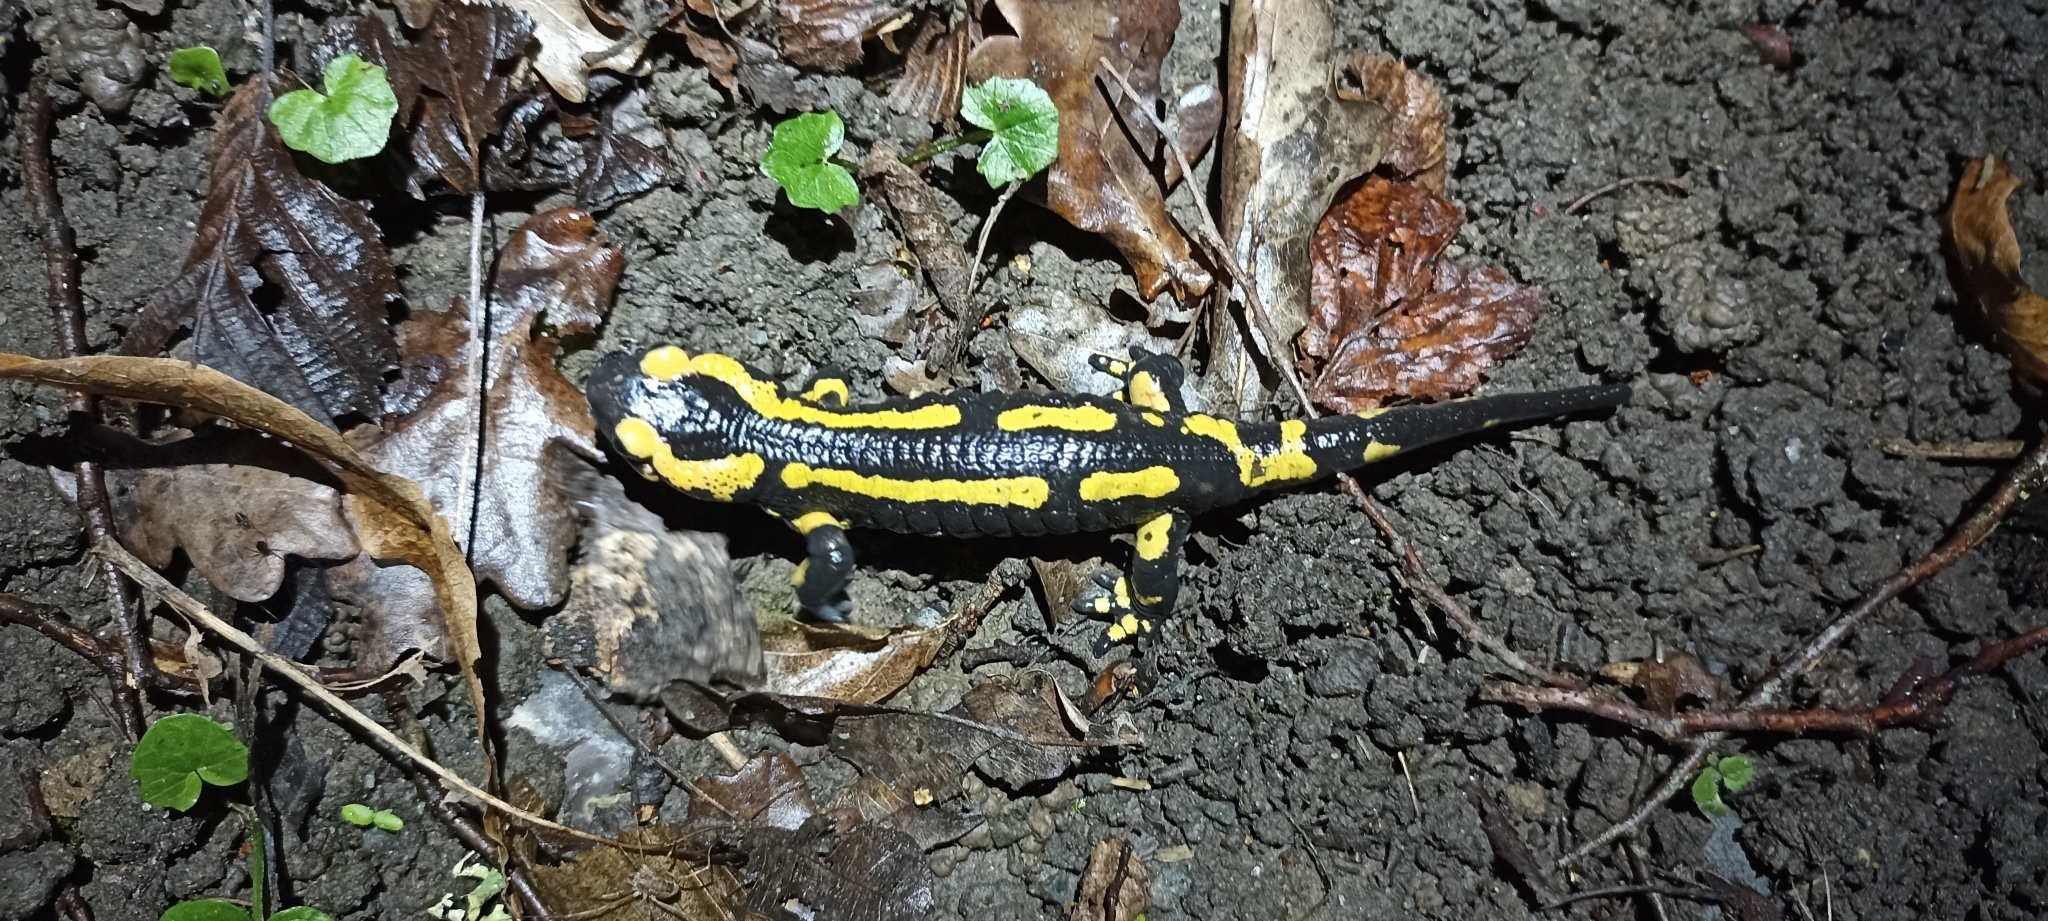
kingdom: Animalia
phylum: Chordata
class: Amphibia
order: Caudata
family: Salamandridae
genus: Salamandra
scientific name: Salamandra salamandra
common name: Fire salamander
